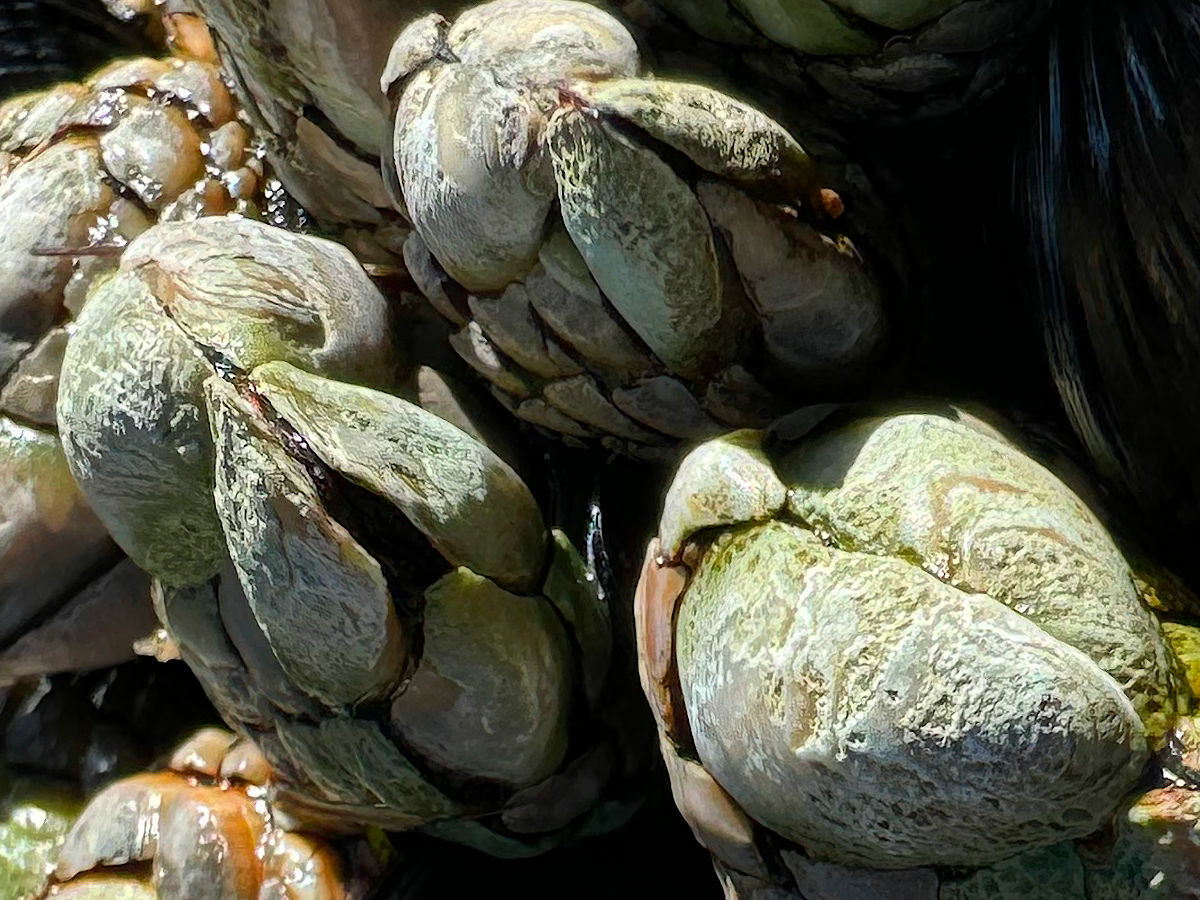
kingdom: Animalia
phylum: Arthropoda
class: Maxillopoda
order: Pedunculata
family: Pollicipedidae
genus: Pollicipes
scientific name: Pollicipes polymerus
